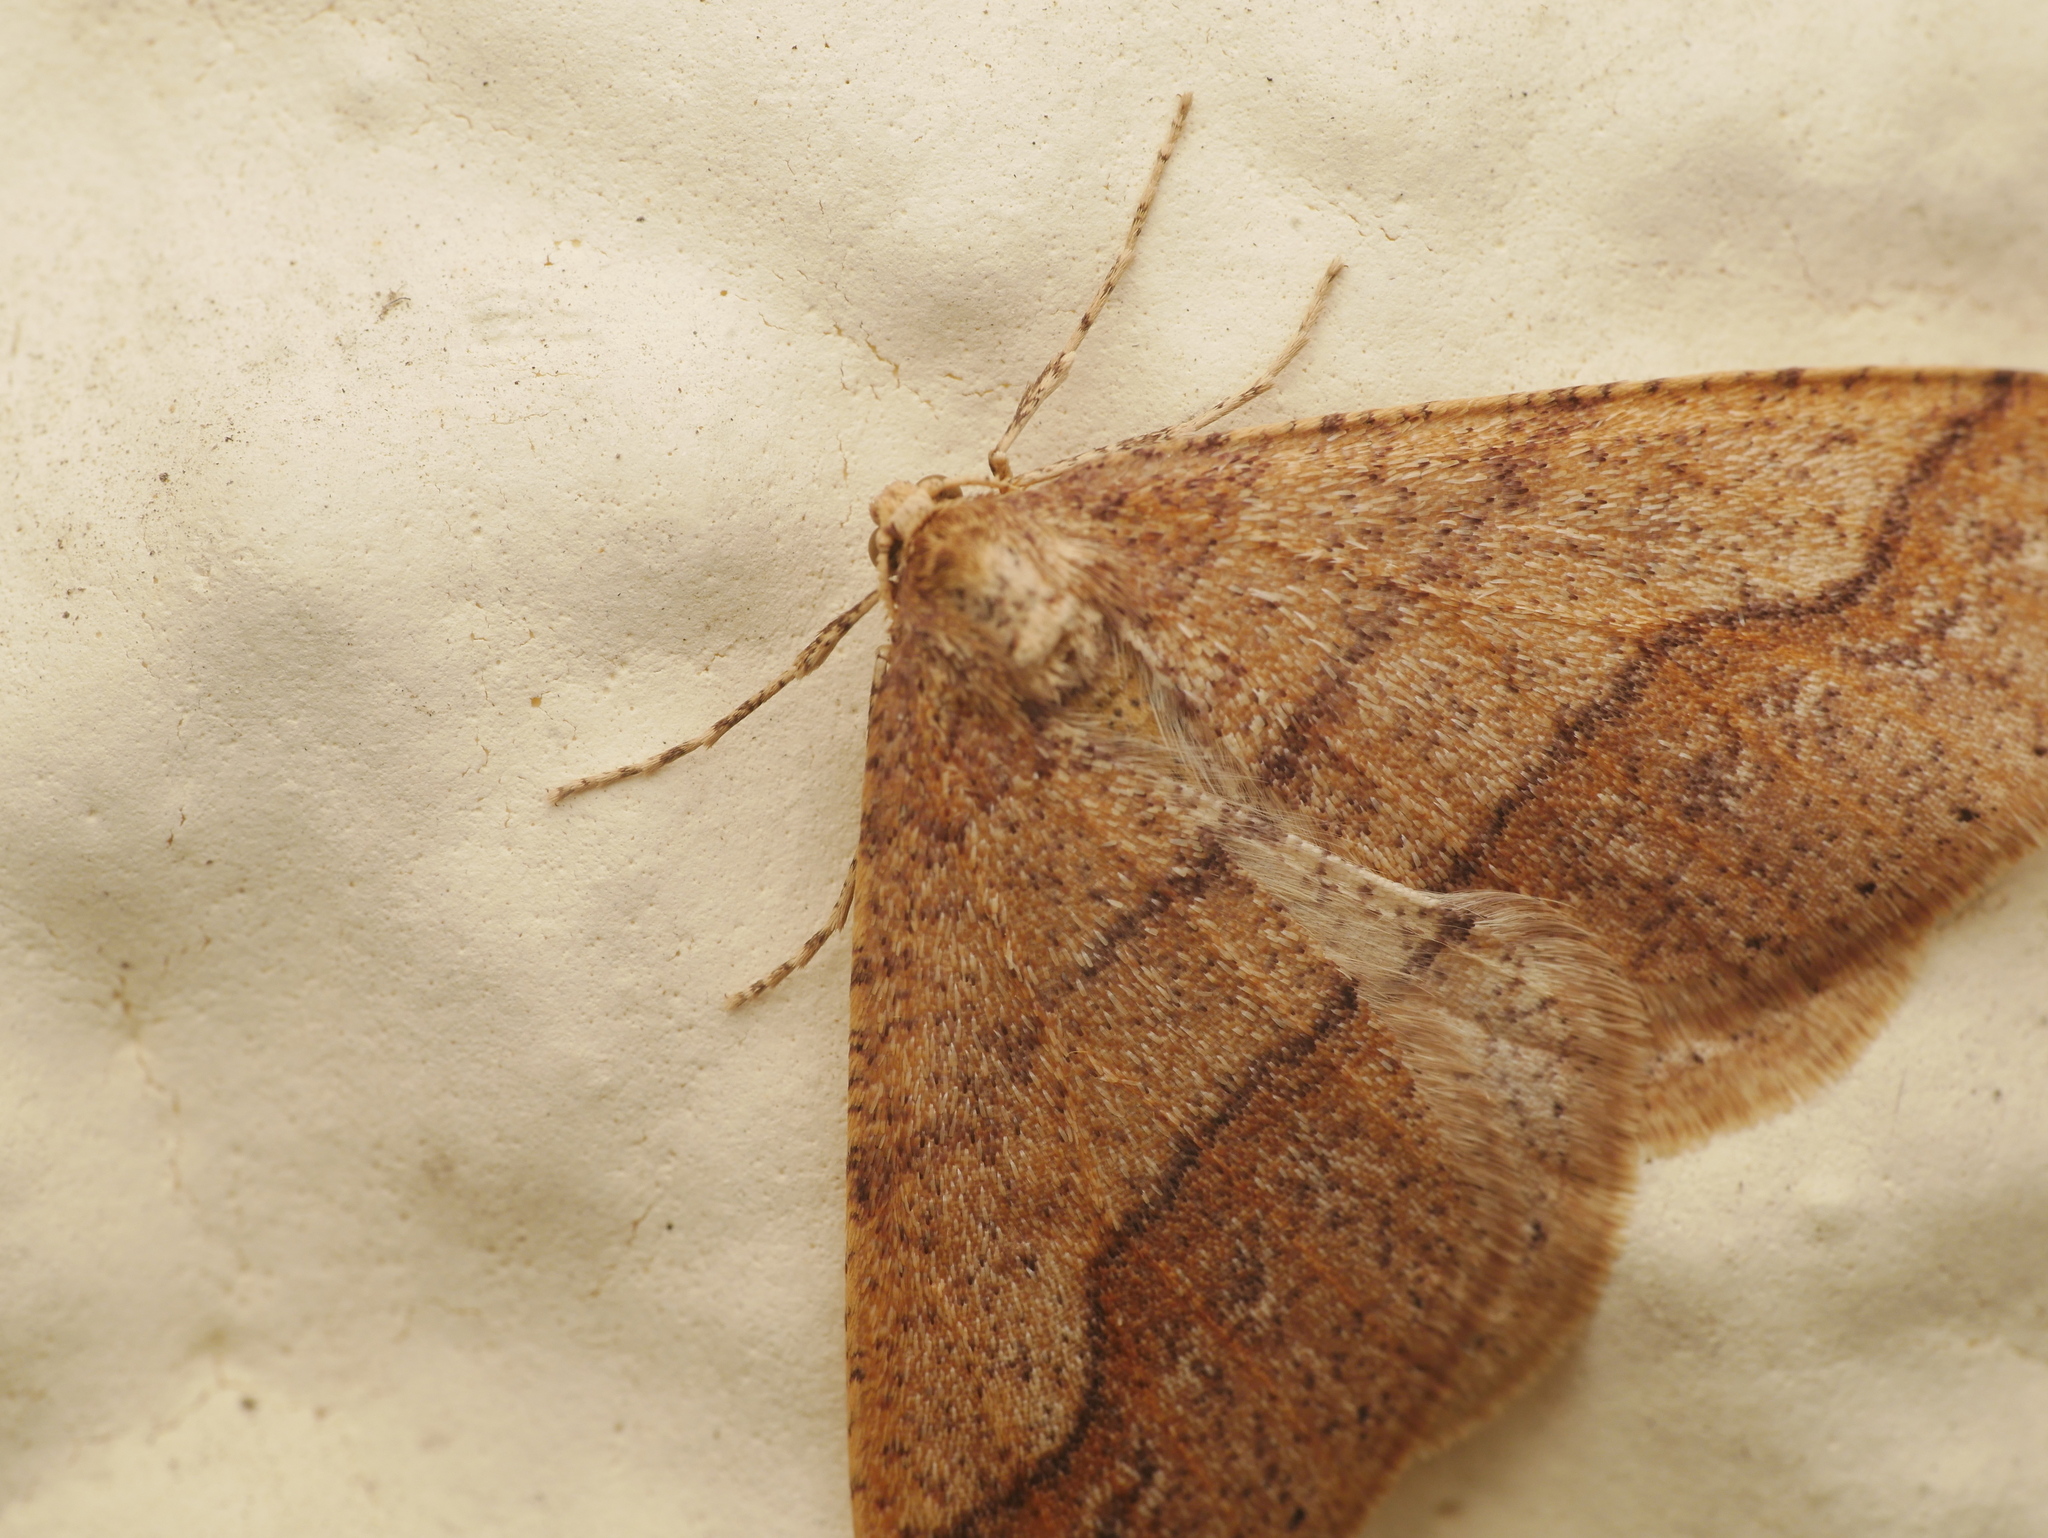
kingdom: Animalia
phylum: Arthropoda
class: Insecta
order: Lepidoptera
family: Geometridae
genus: Agriopis
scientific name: Agriopis marginaria
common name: Dotted border
